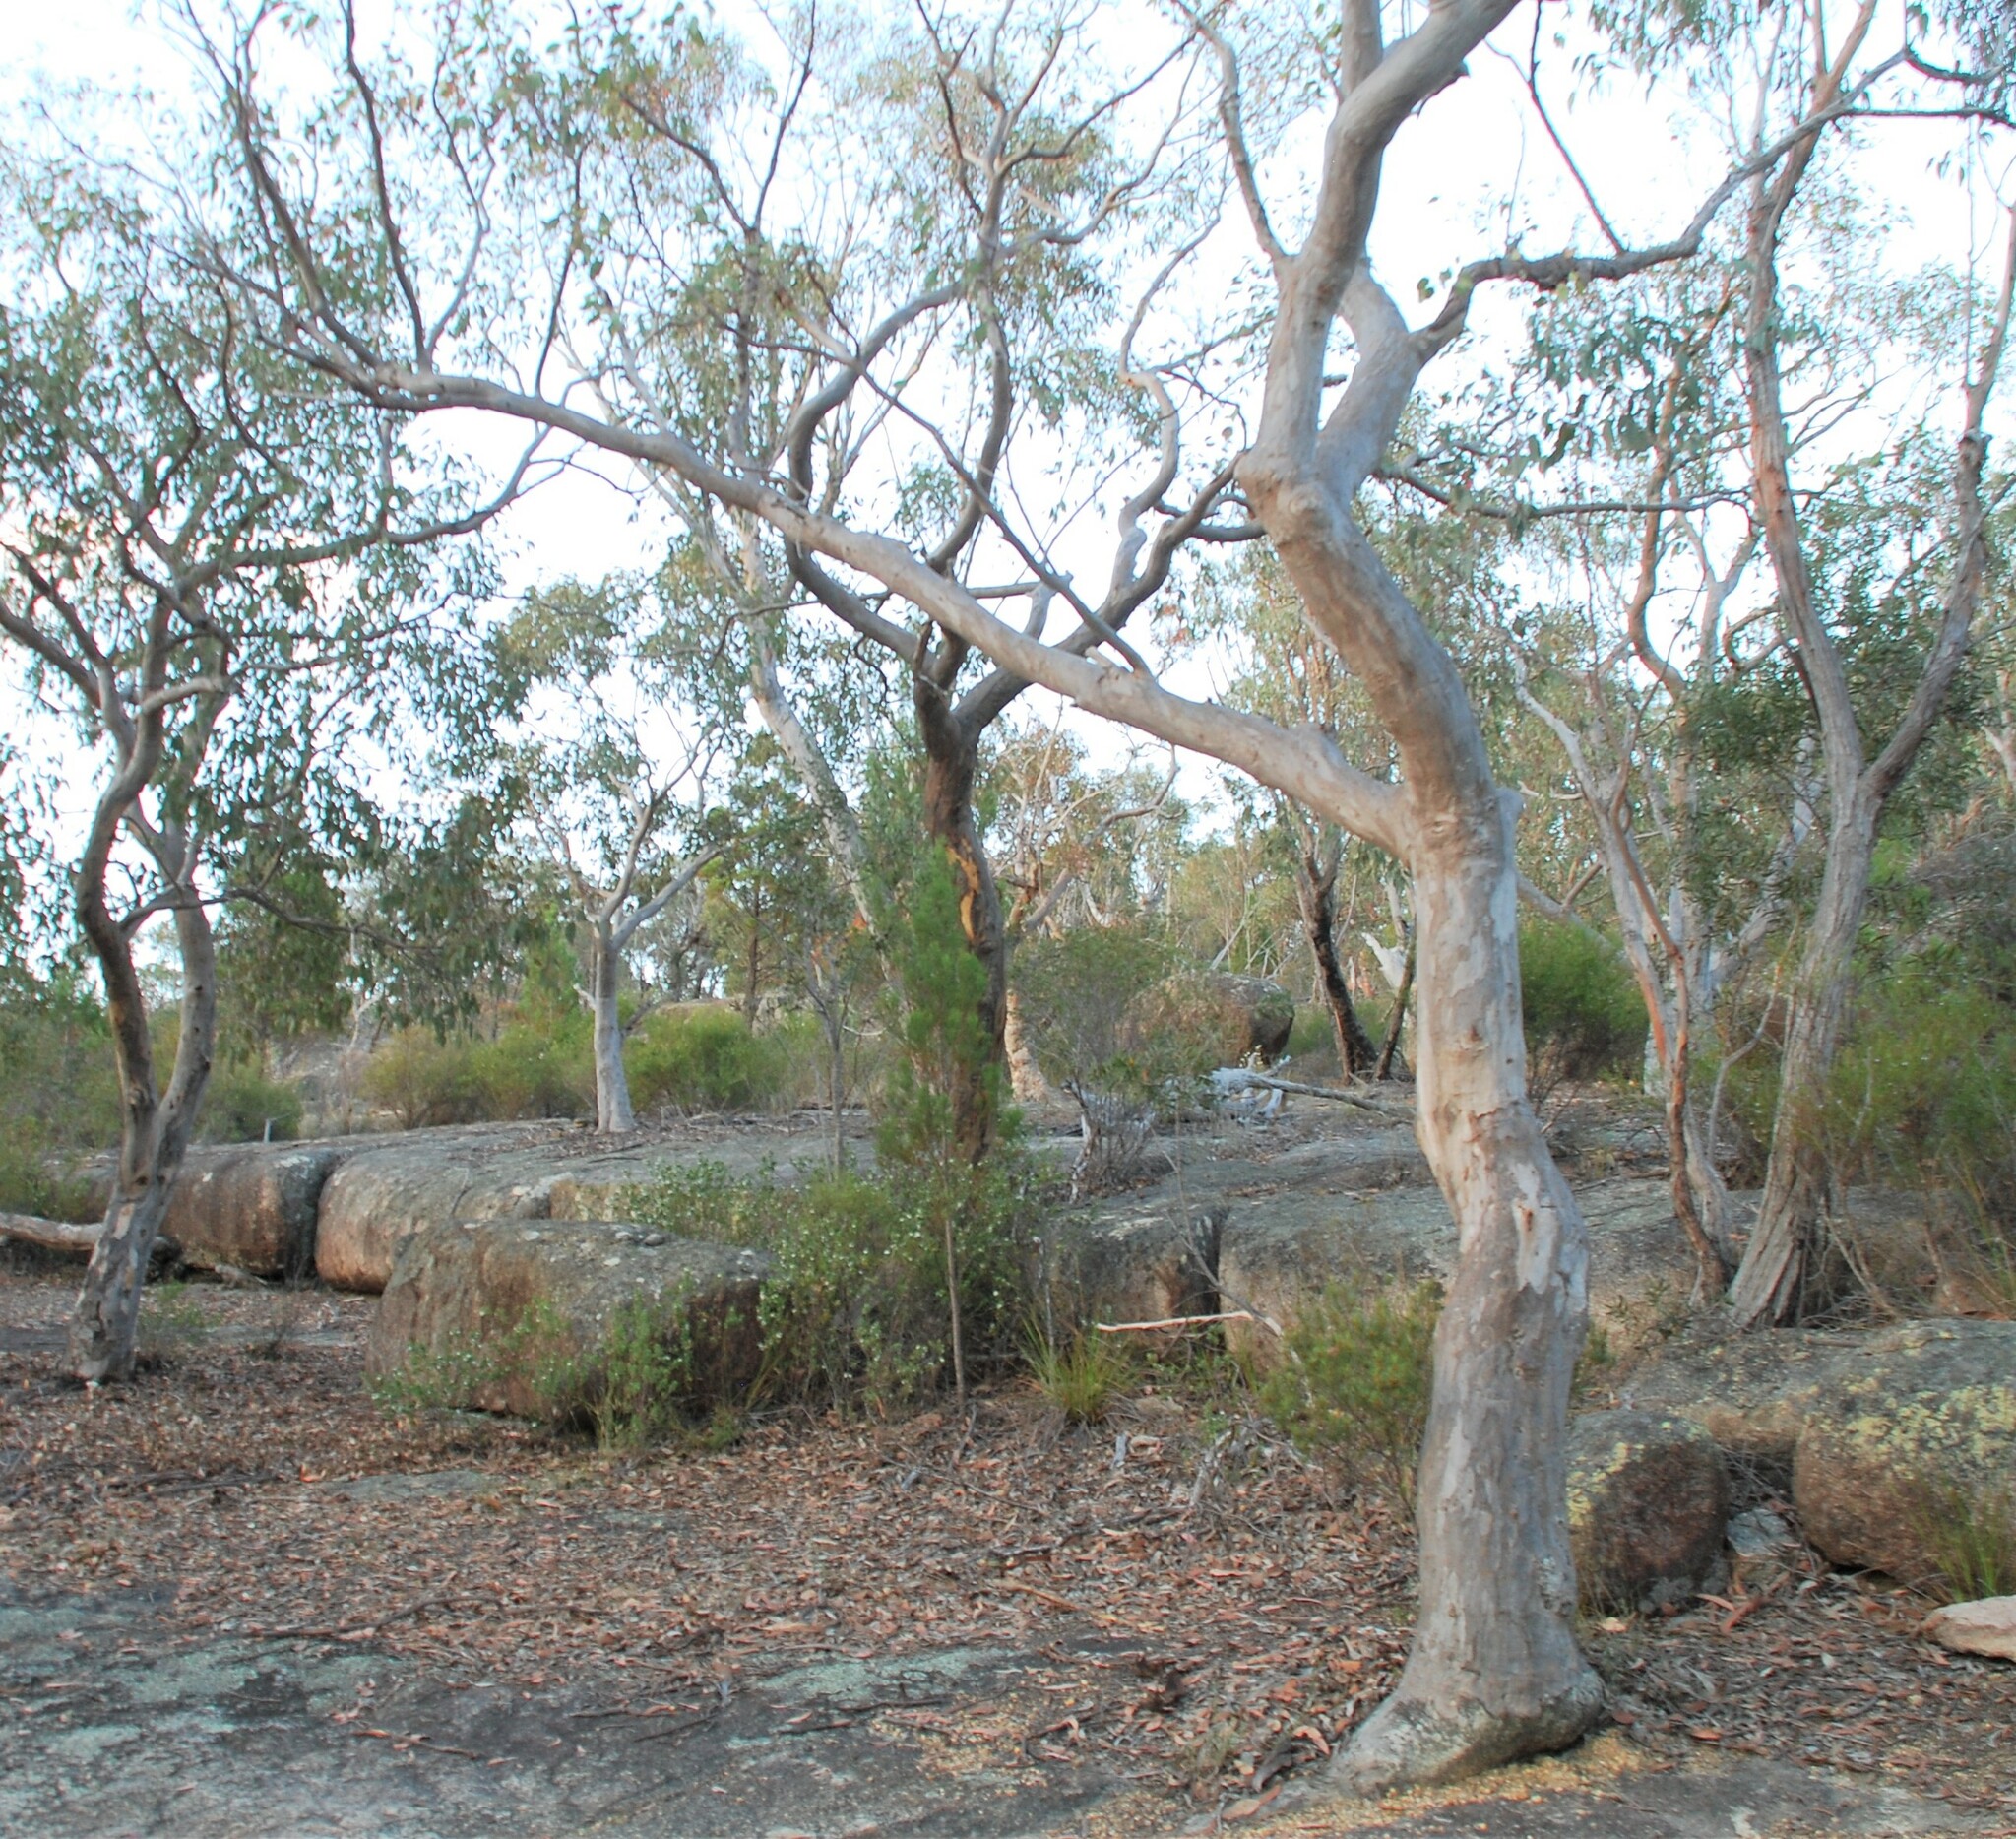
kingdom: Plantae
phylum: Tracheophyta
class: Magnoliopsida
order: Myrtales
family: Myrtaceae
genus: Eucalyptus
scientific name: Eucalyptus prava
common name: Orange gum
